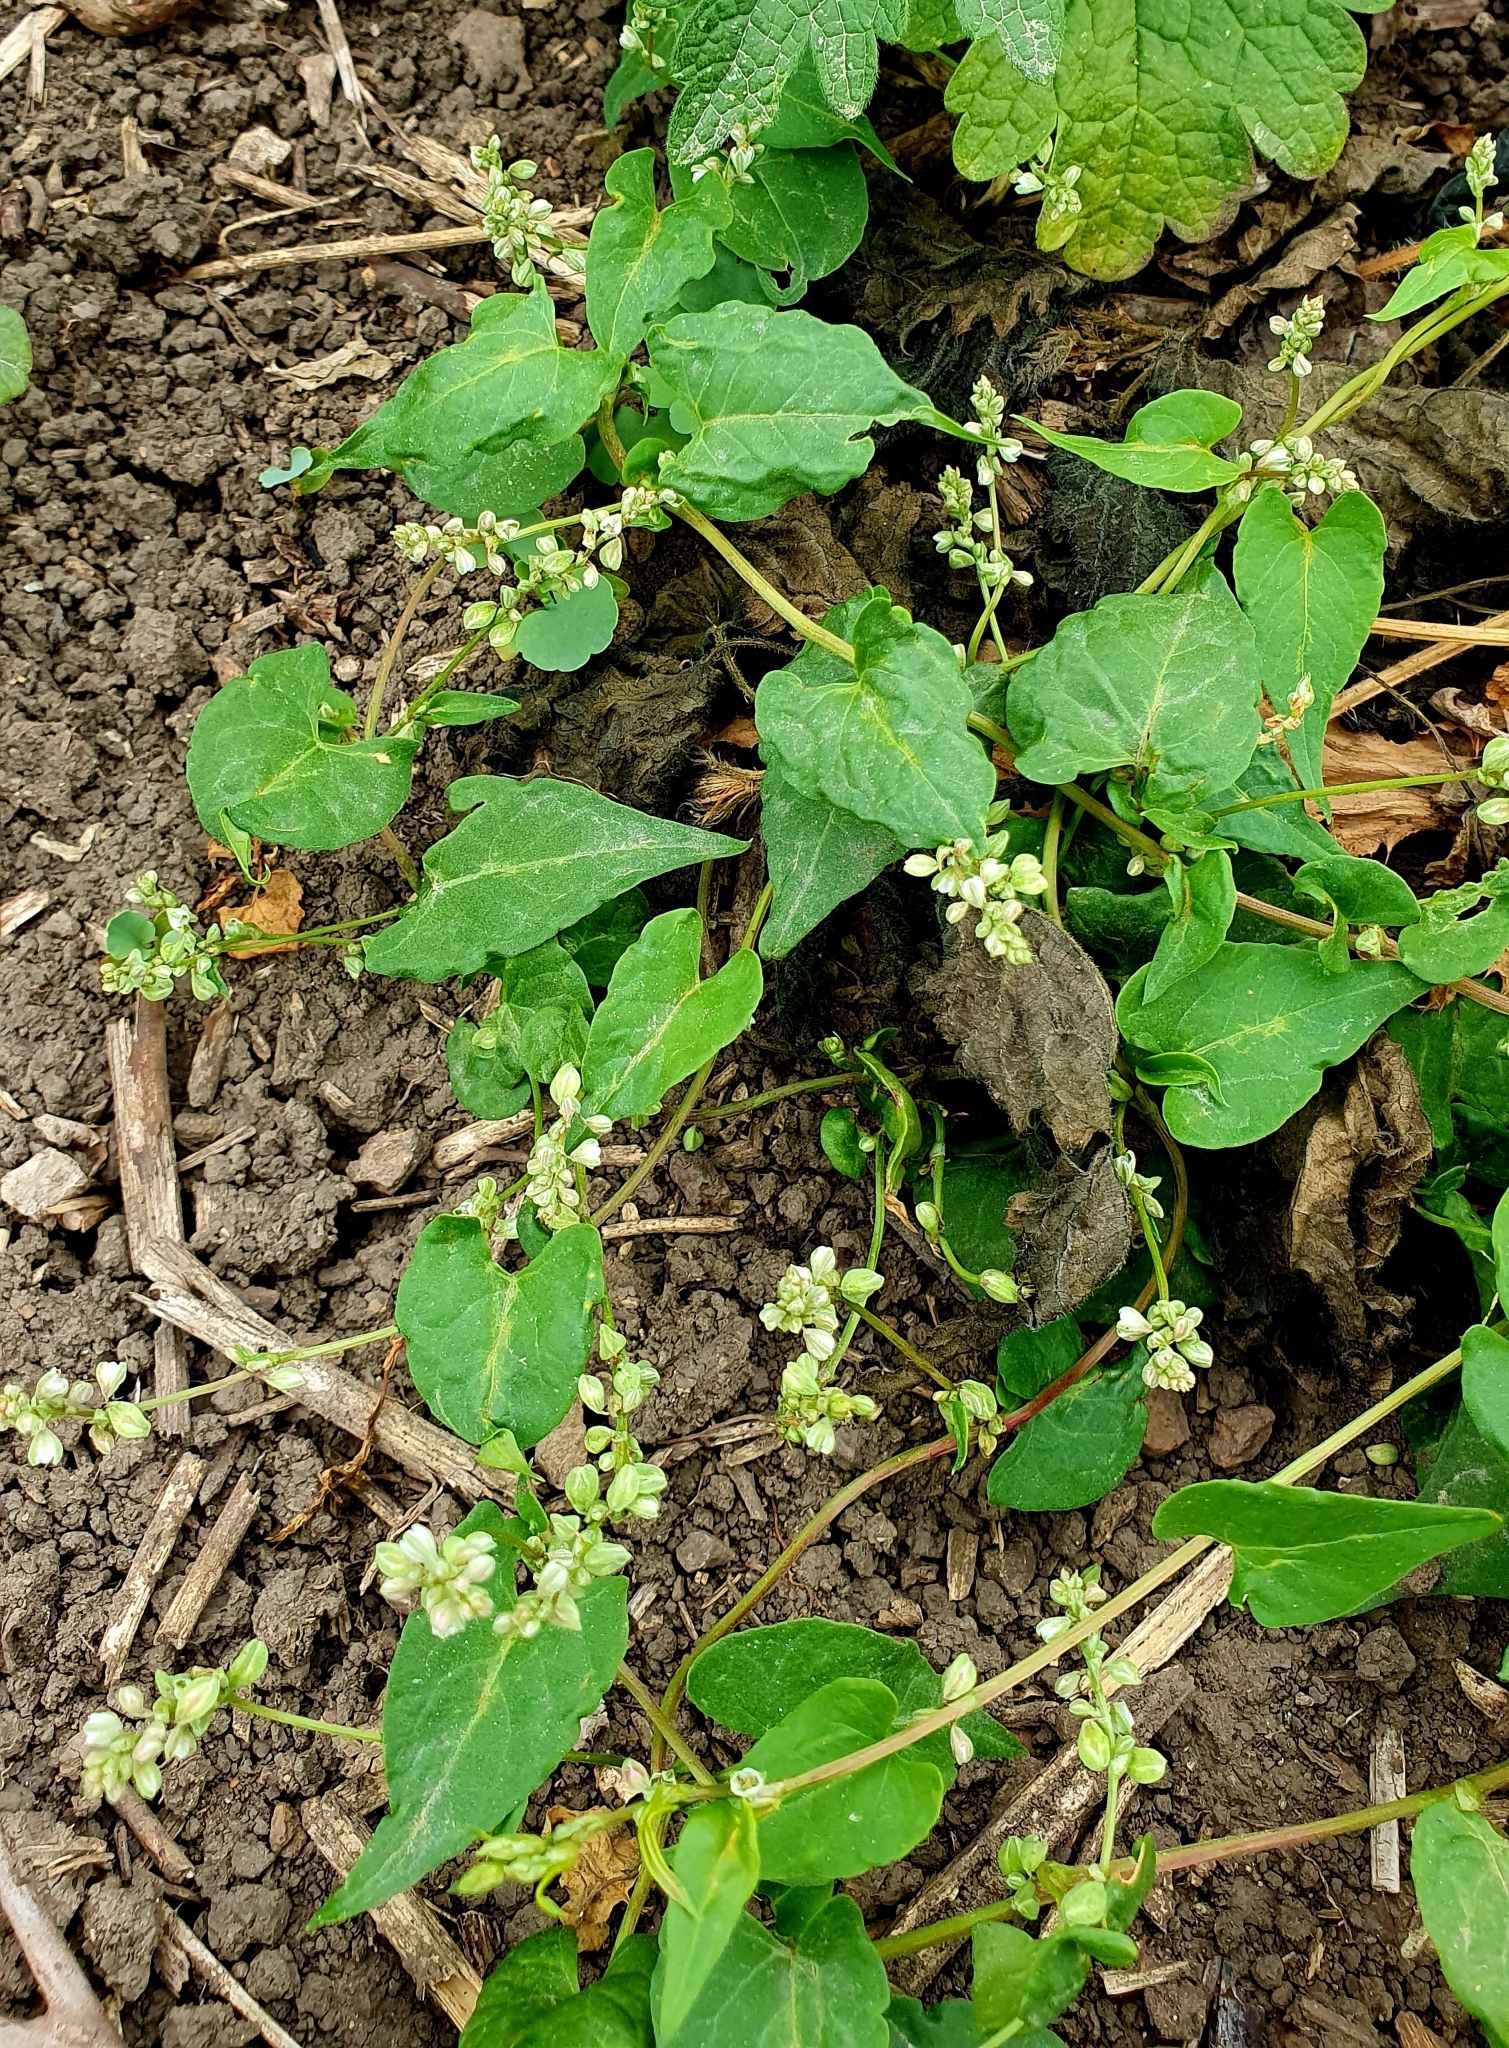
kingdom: Plantae
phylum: Tracheophyta
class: Magnoliopsida
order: Caryophyllales
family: Polygonaceae
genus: Fallopia
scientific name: Fallopia convolvulus
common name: Black bindweed
